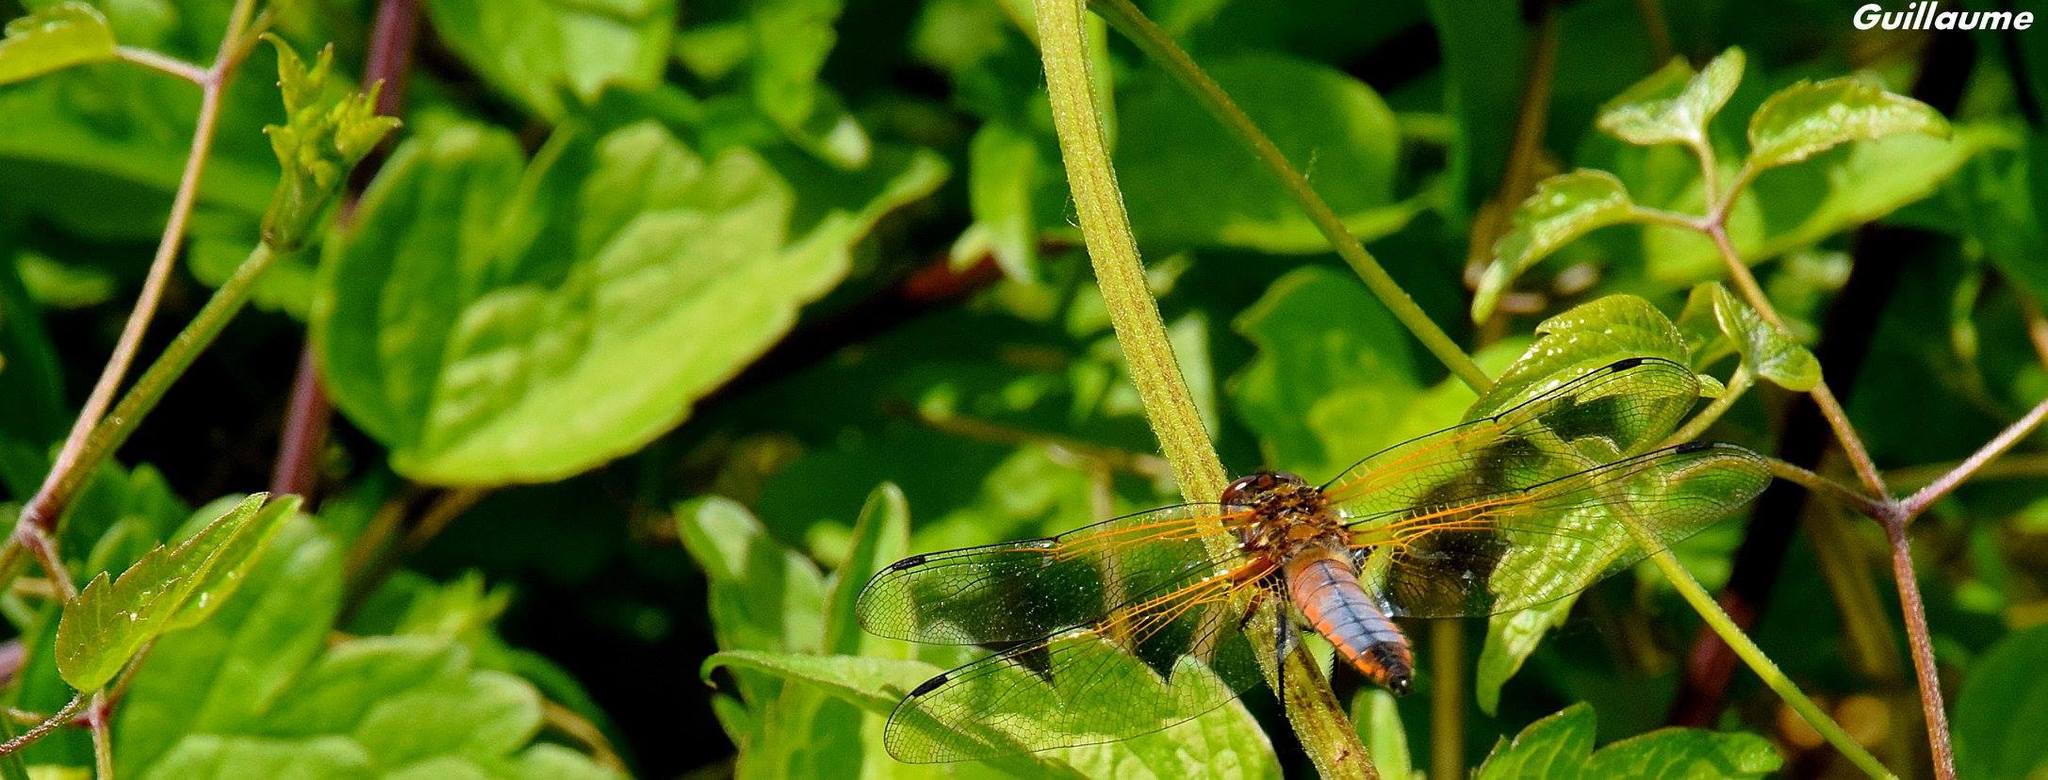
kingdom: Animalia
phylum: Arthropoda
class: Insecta
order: Odonata
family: Libellulidae
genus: Libellula
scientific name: Libellula fulva
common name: Blue chaser
